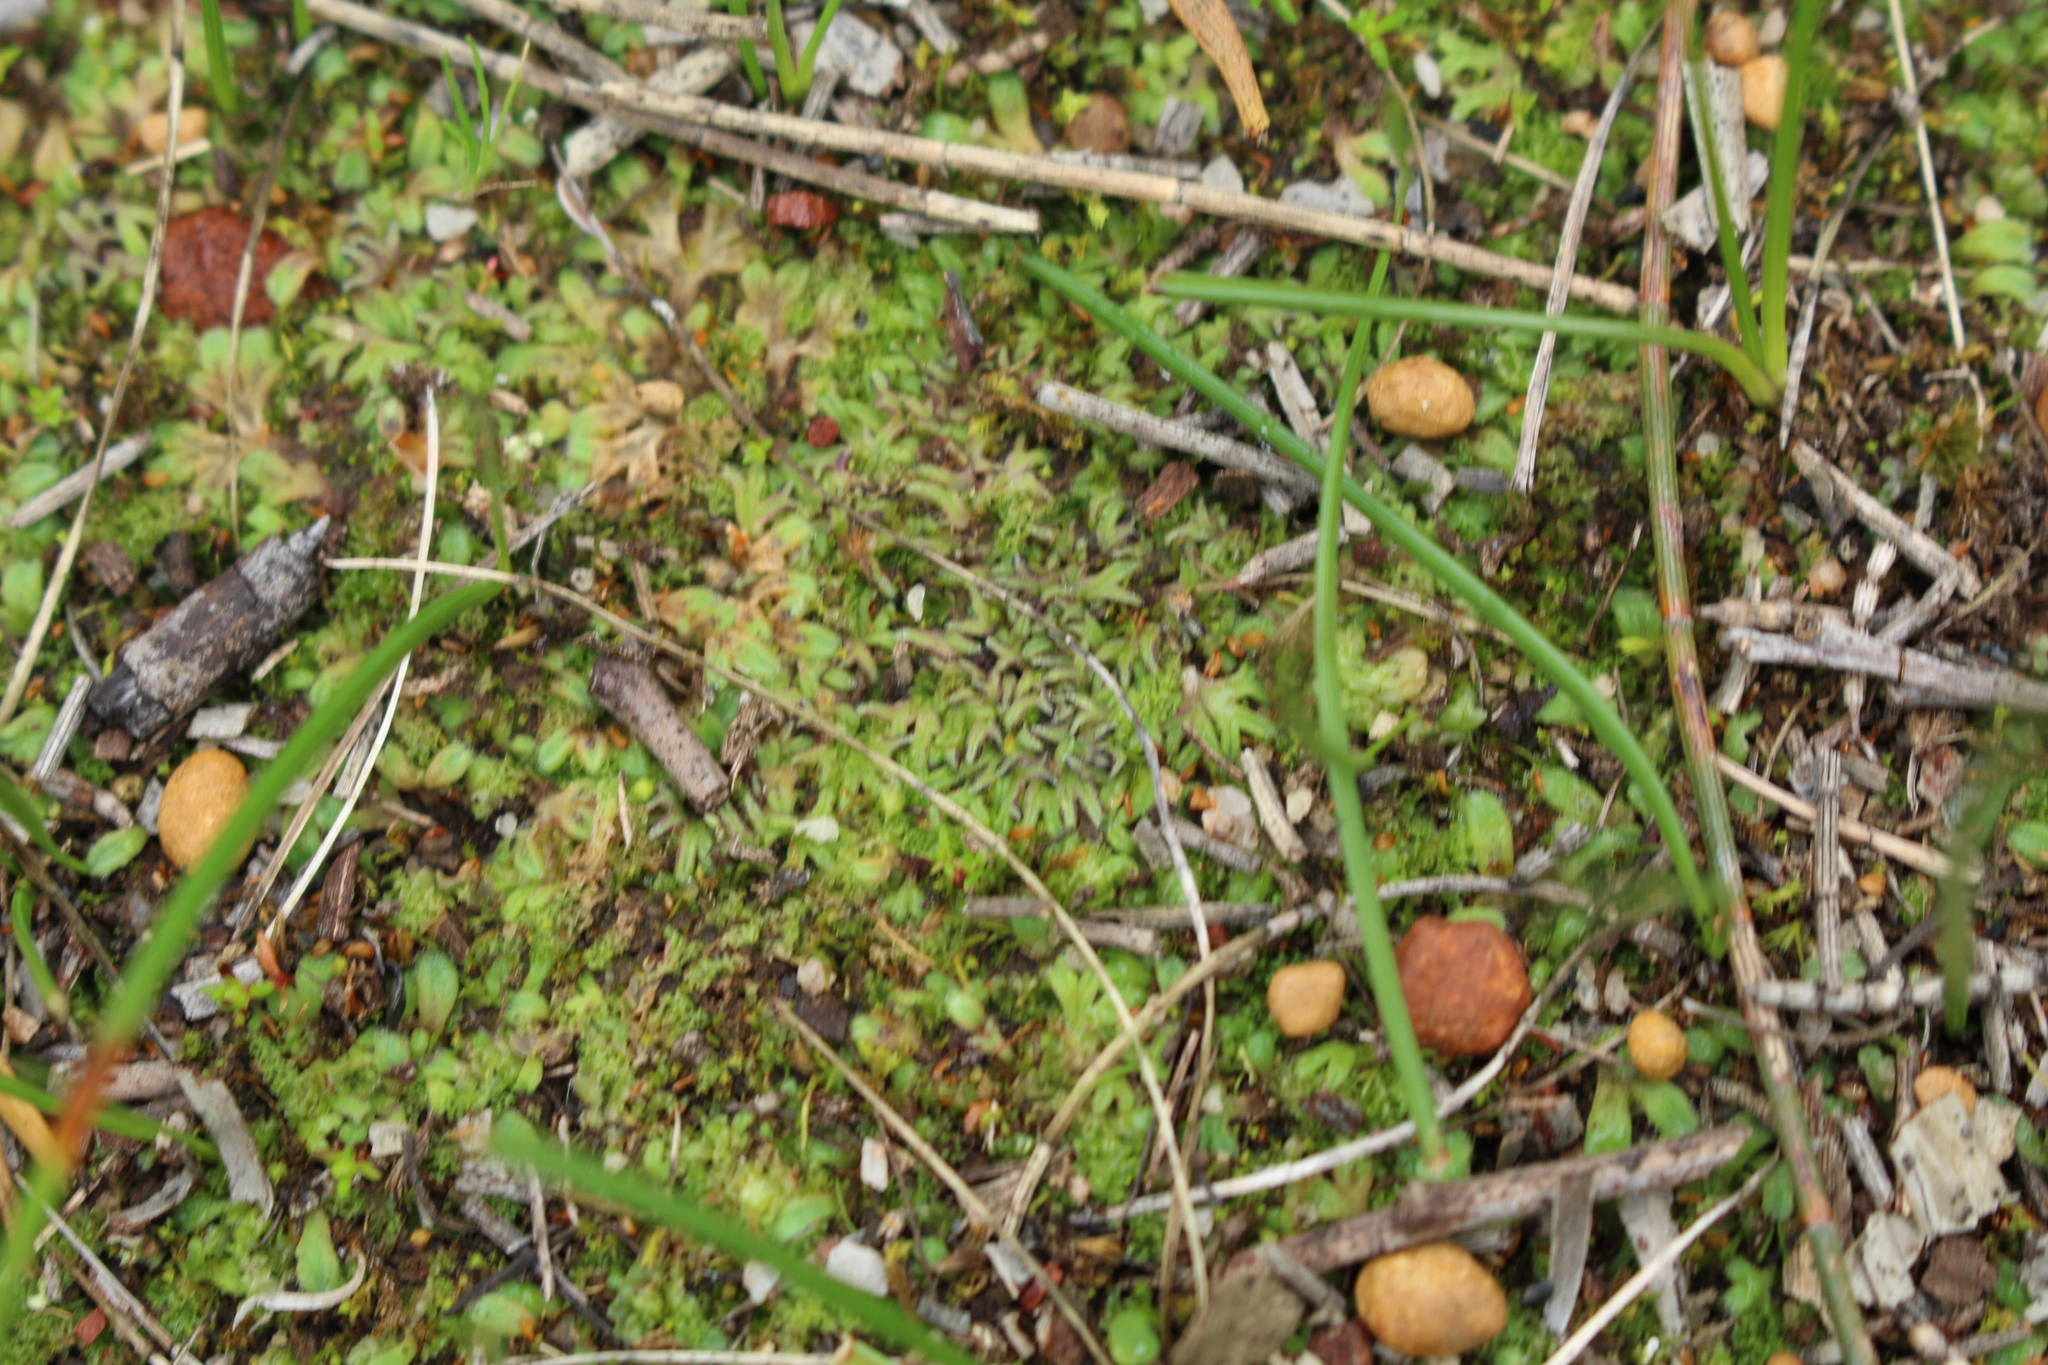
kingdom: Plantae
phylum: Marchantiophyta
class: Marchantiopsida
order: Marchantiales
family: Ricciaceae
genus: Riccia
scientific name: Riccia sorocarpa
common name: Common crystalwort
